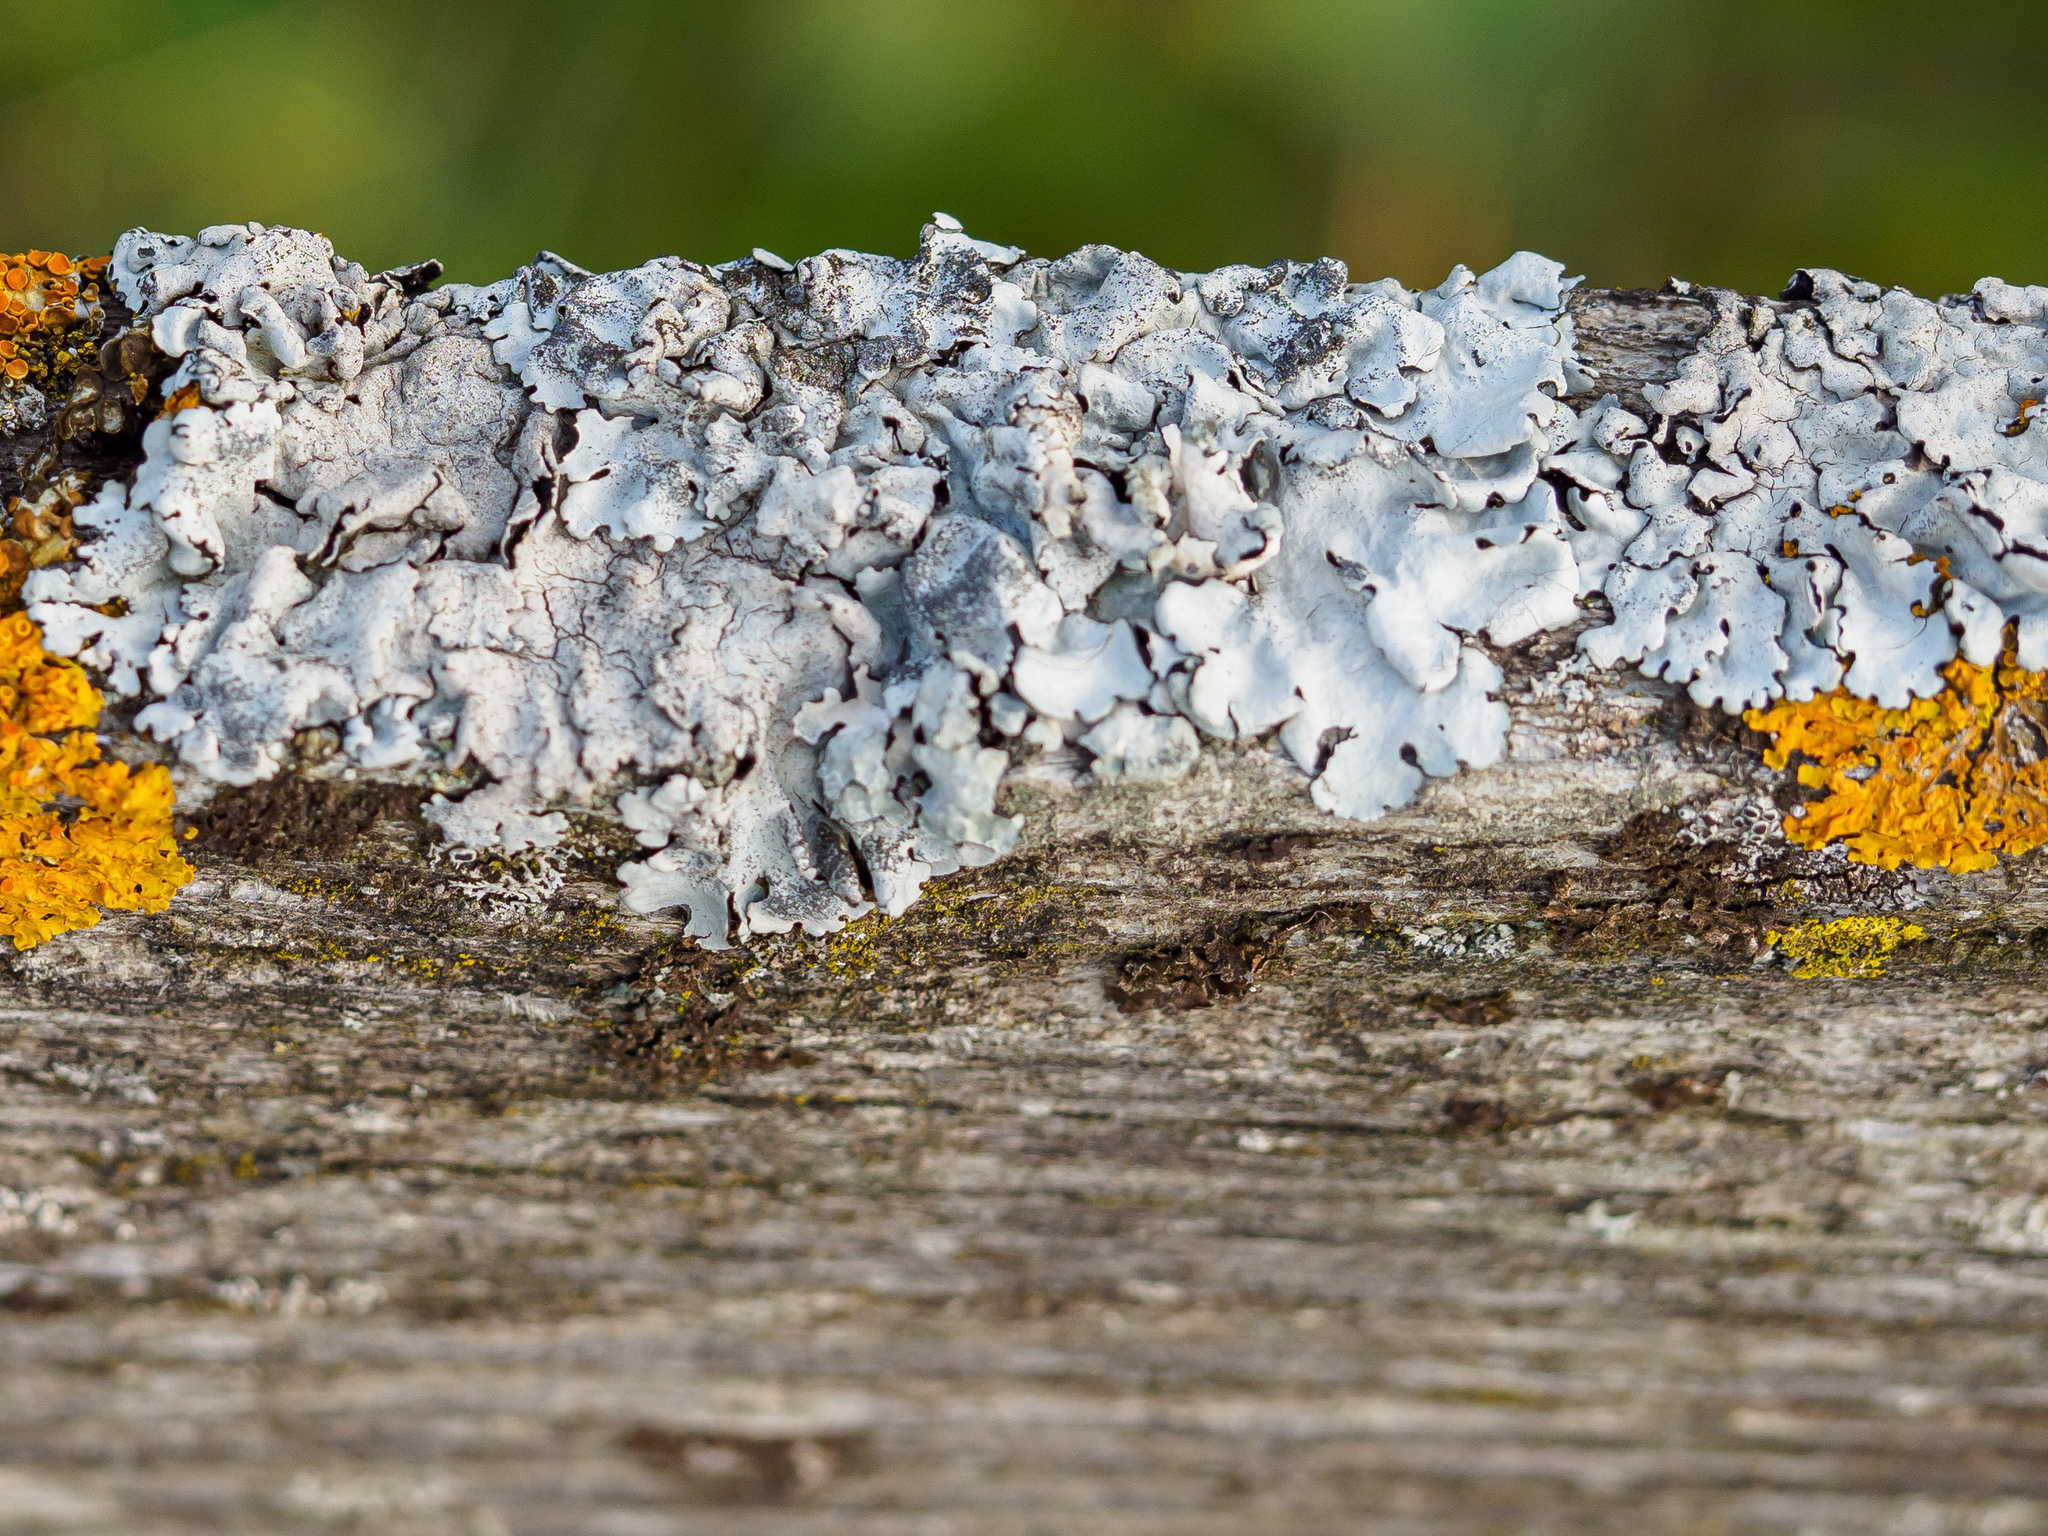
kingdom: Fungi
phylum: Ascomycota
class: Lecanoromycetes
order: Lecanorales
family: Parmeliaceae
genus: Parmelina
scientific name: Parmelina pastillifera
